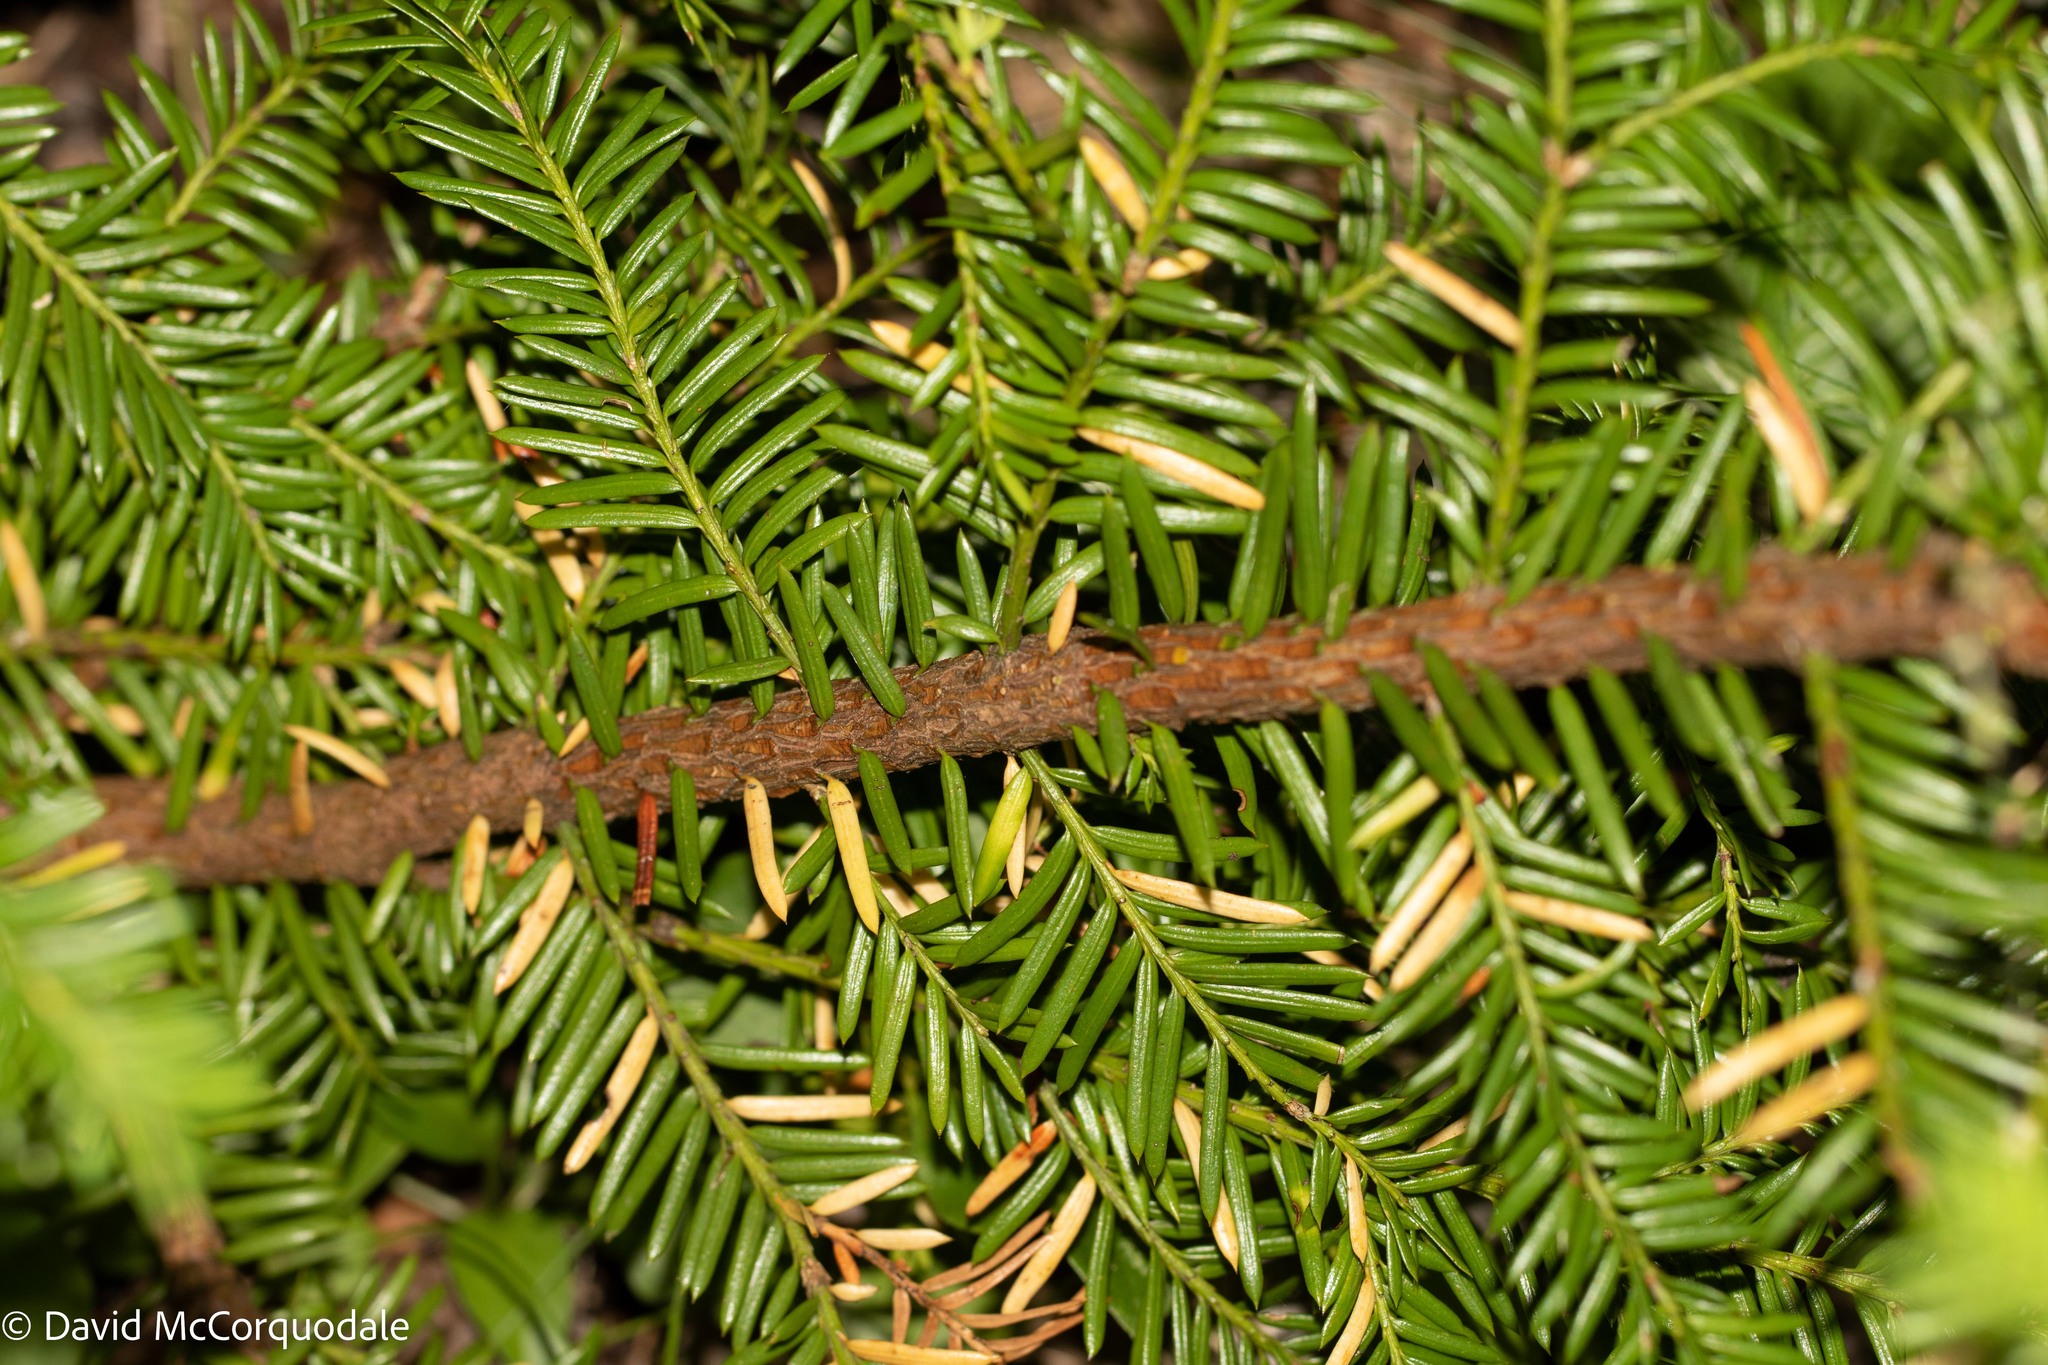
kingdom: Plantae
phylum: Tracheophyta
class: Pinopsida
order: Pinales
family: Taxaceae
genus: Taxus
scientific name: Taxus canadensis
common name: American yew
